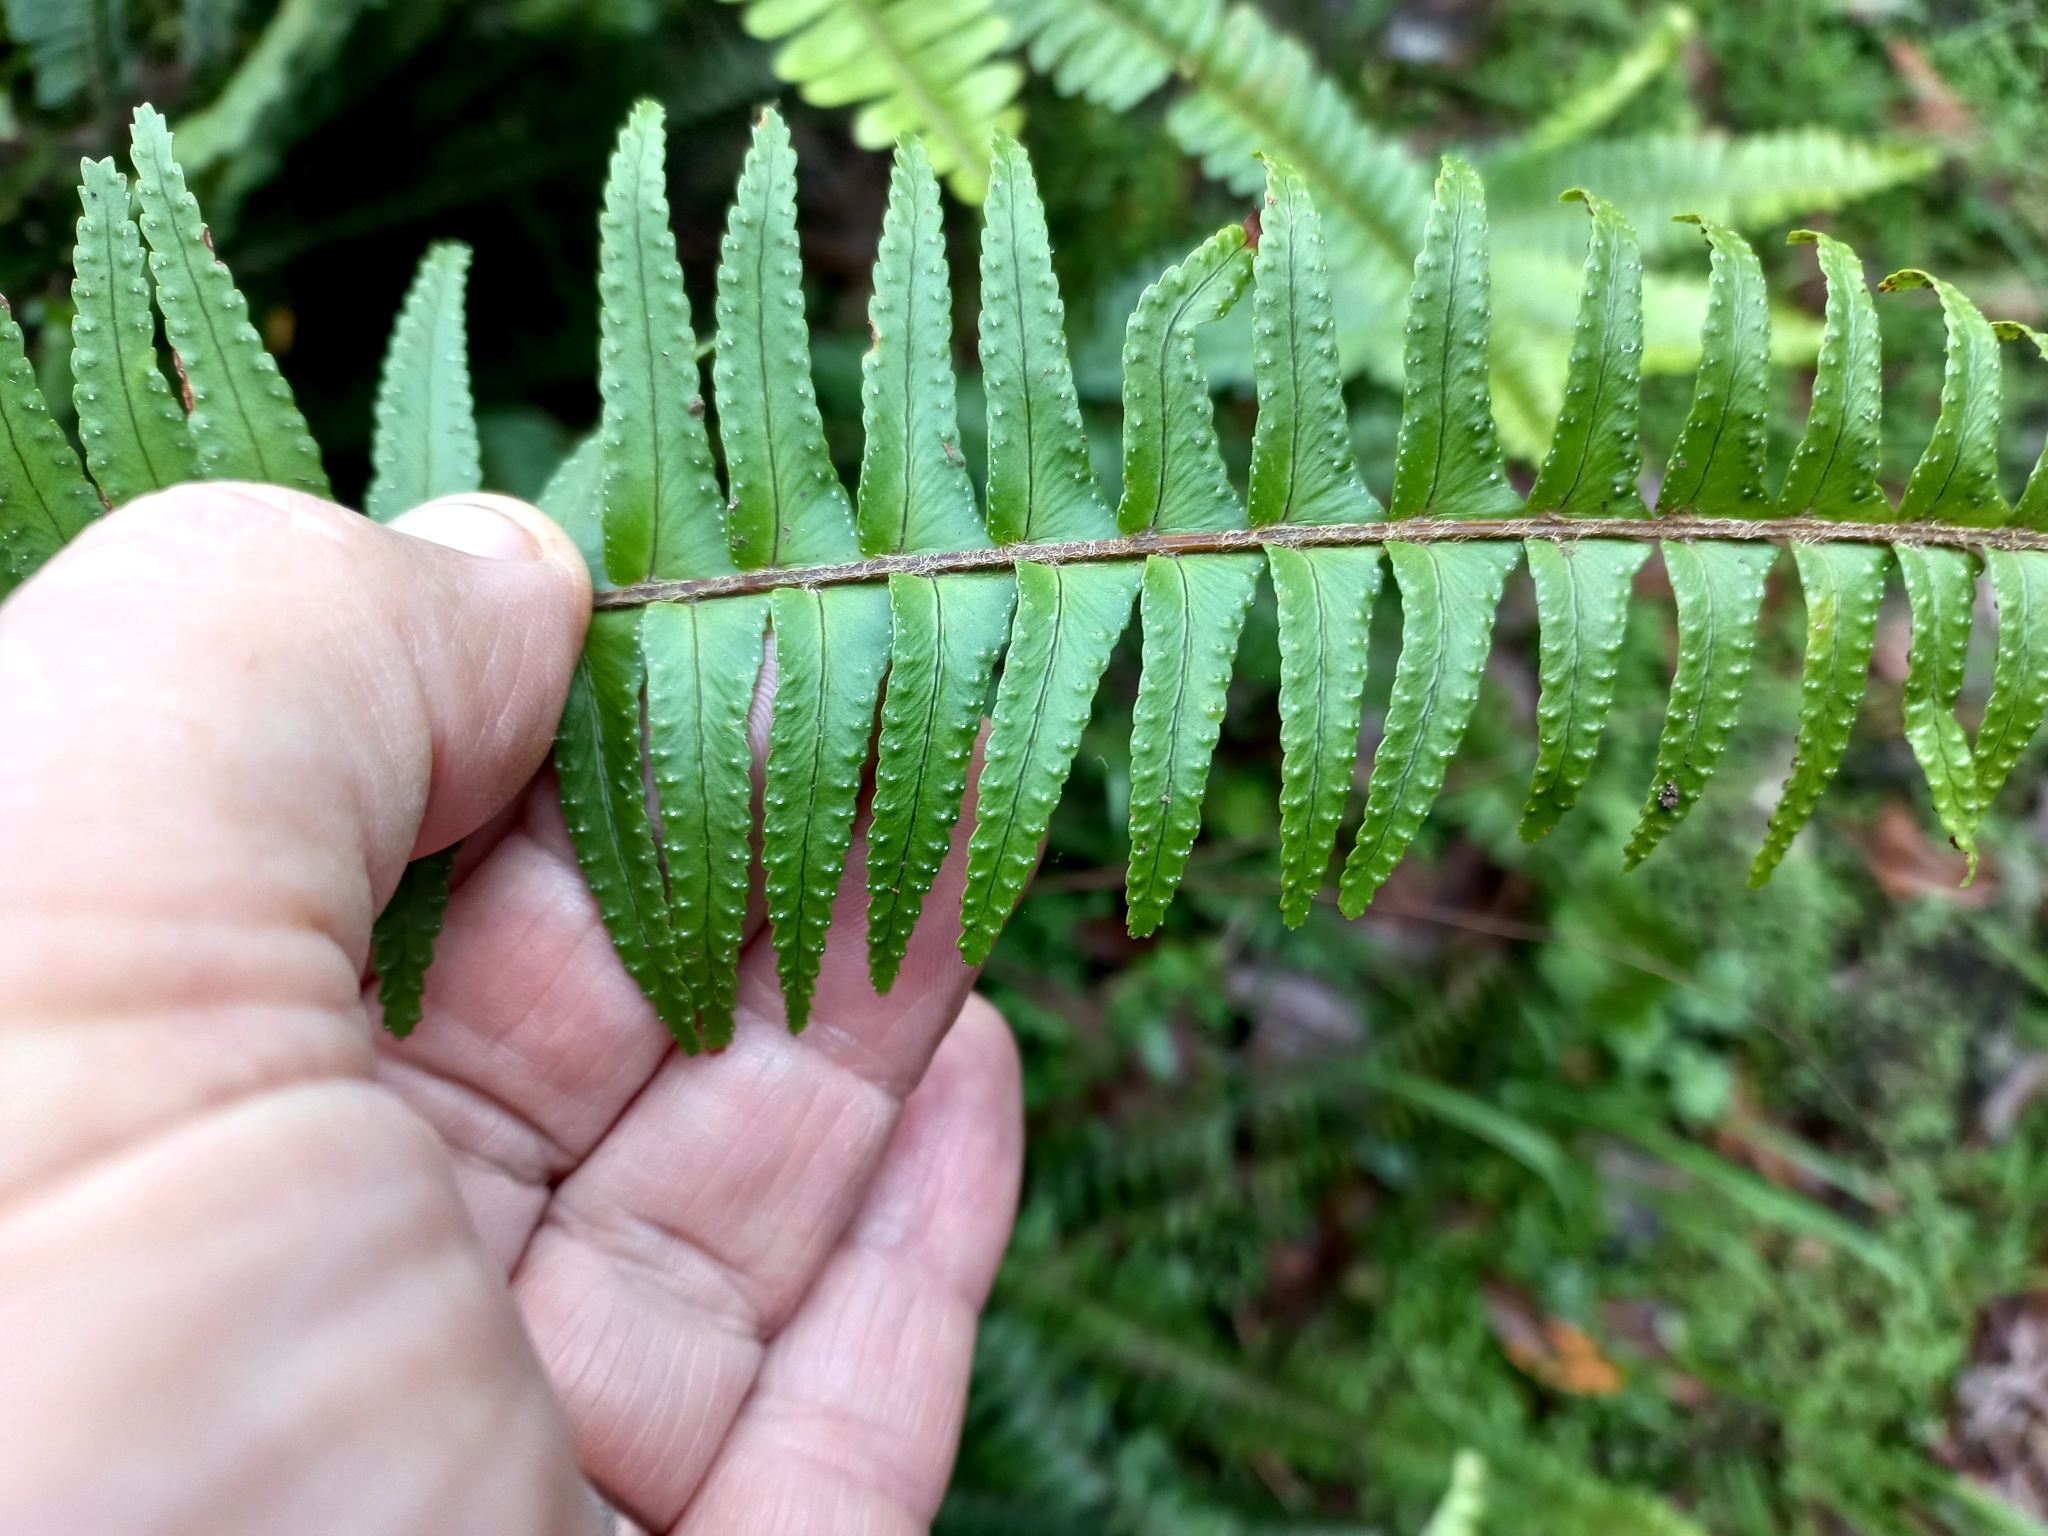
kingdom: Plantae
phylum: Tracheophyta
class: Polypodiopsida
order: Polypodiales
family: Nephrolepidaceae
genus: Nephrolepis
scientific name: Nephrolepis cordifolia
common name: Narrow swordfern
